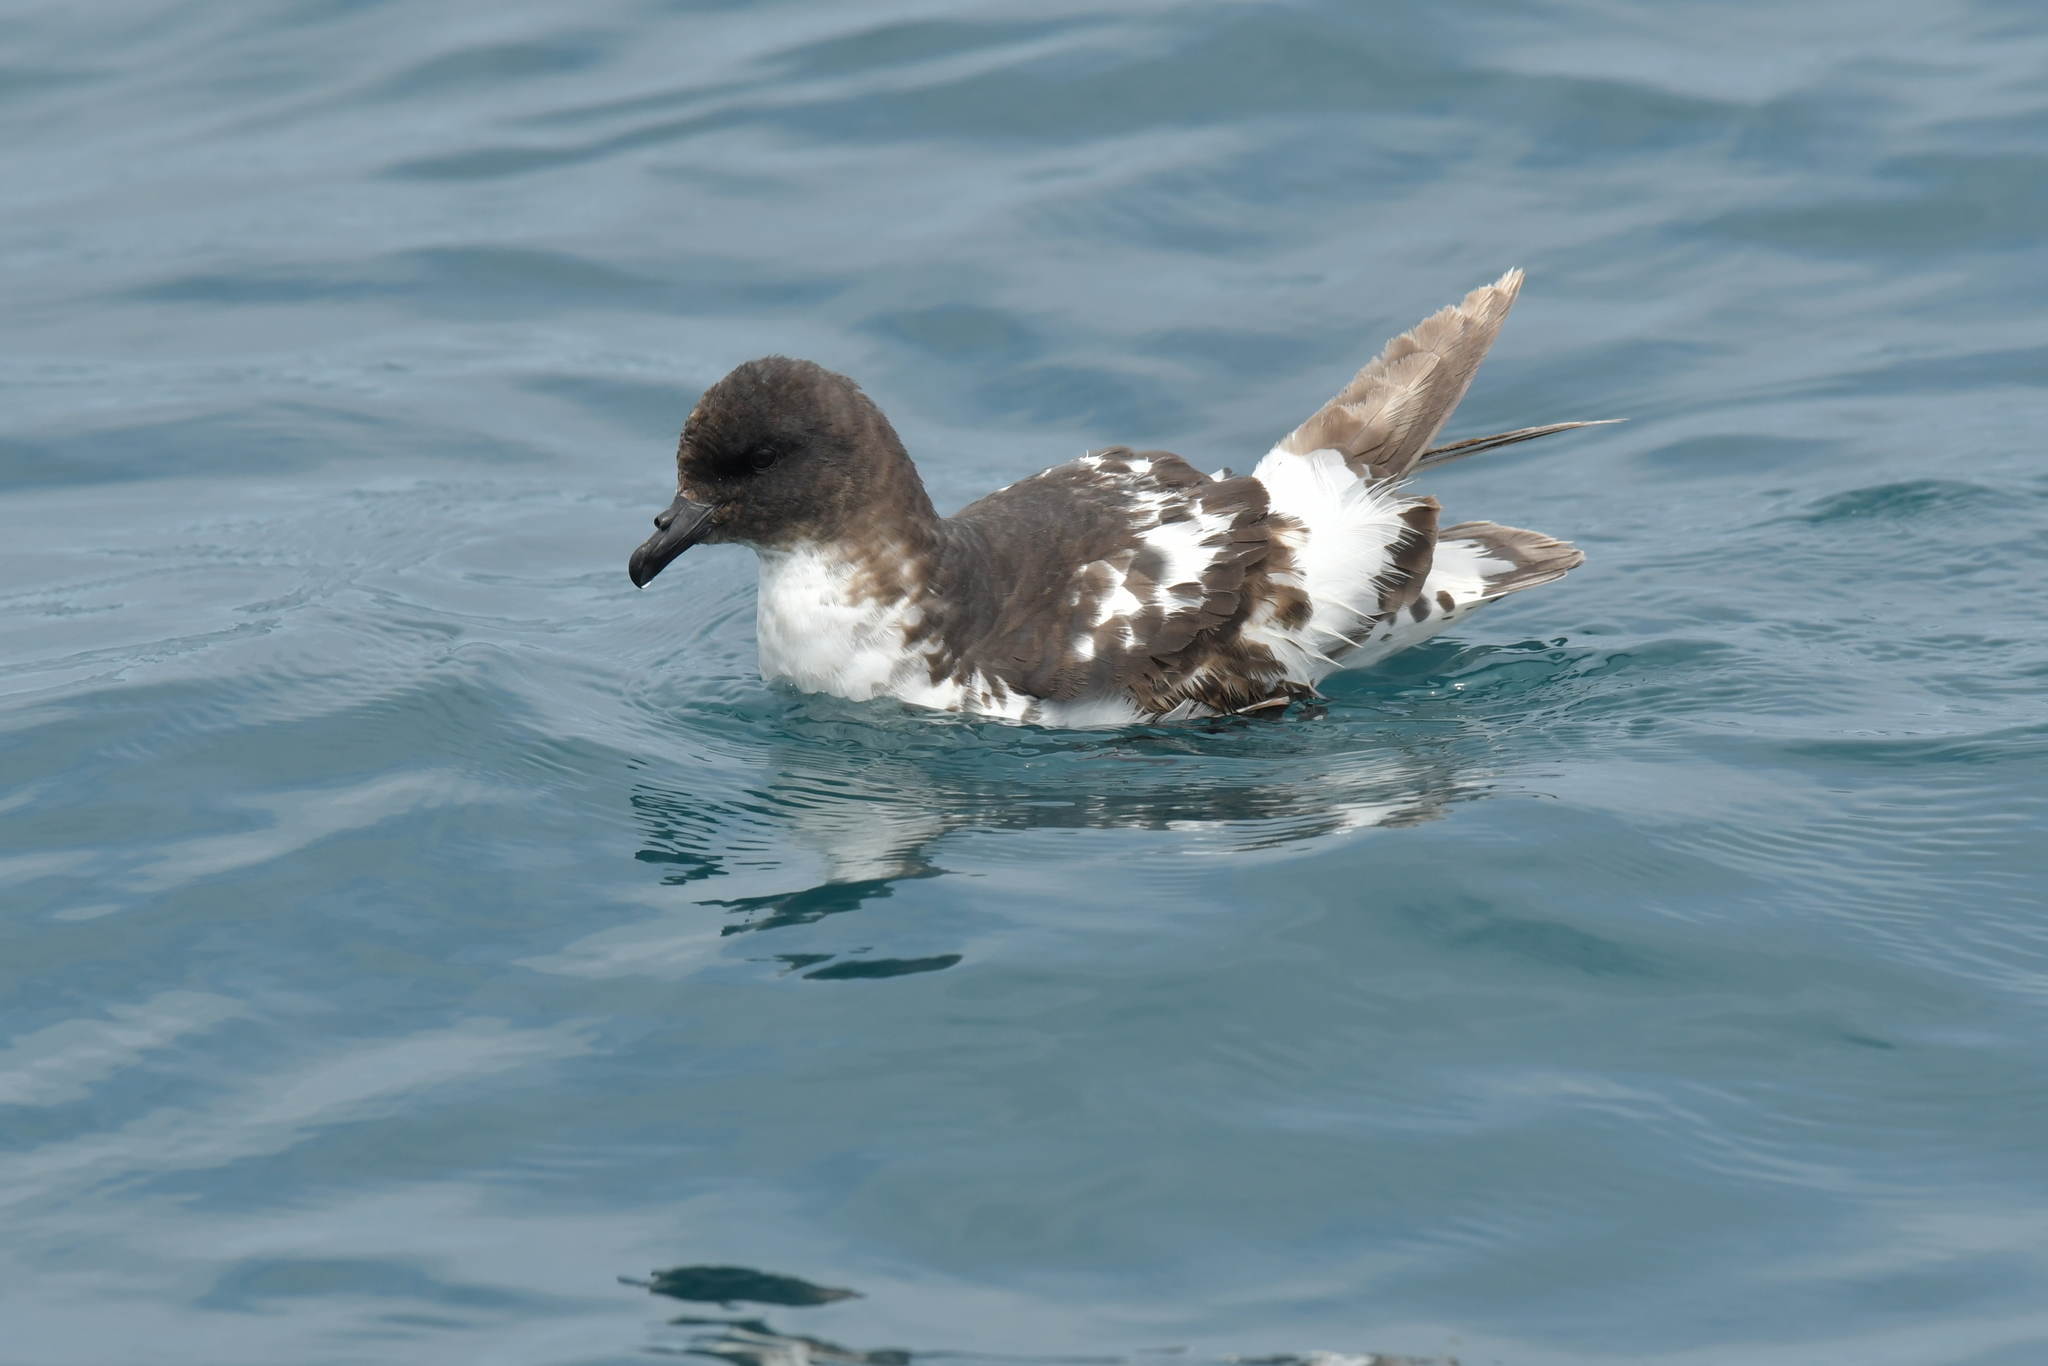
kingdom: Animalia
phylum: Chordata
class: Aves
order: Procellariiformes
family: Procellariidae
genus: Daption
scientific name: Daption capense
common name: Cape petrel
